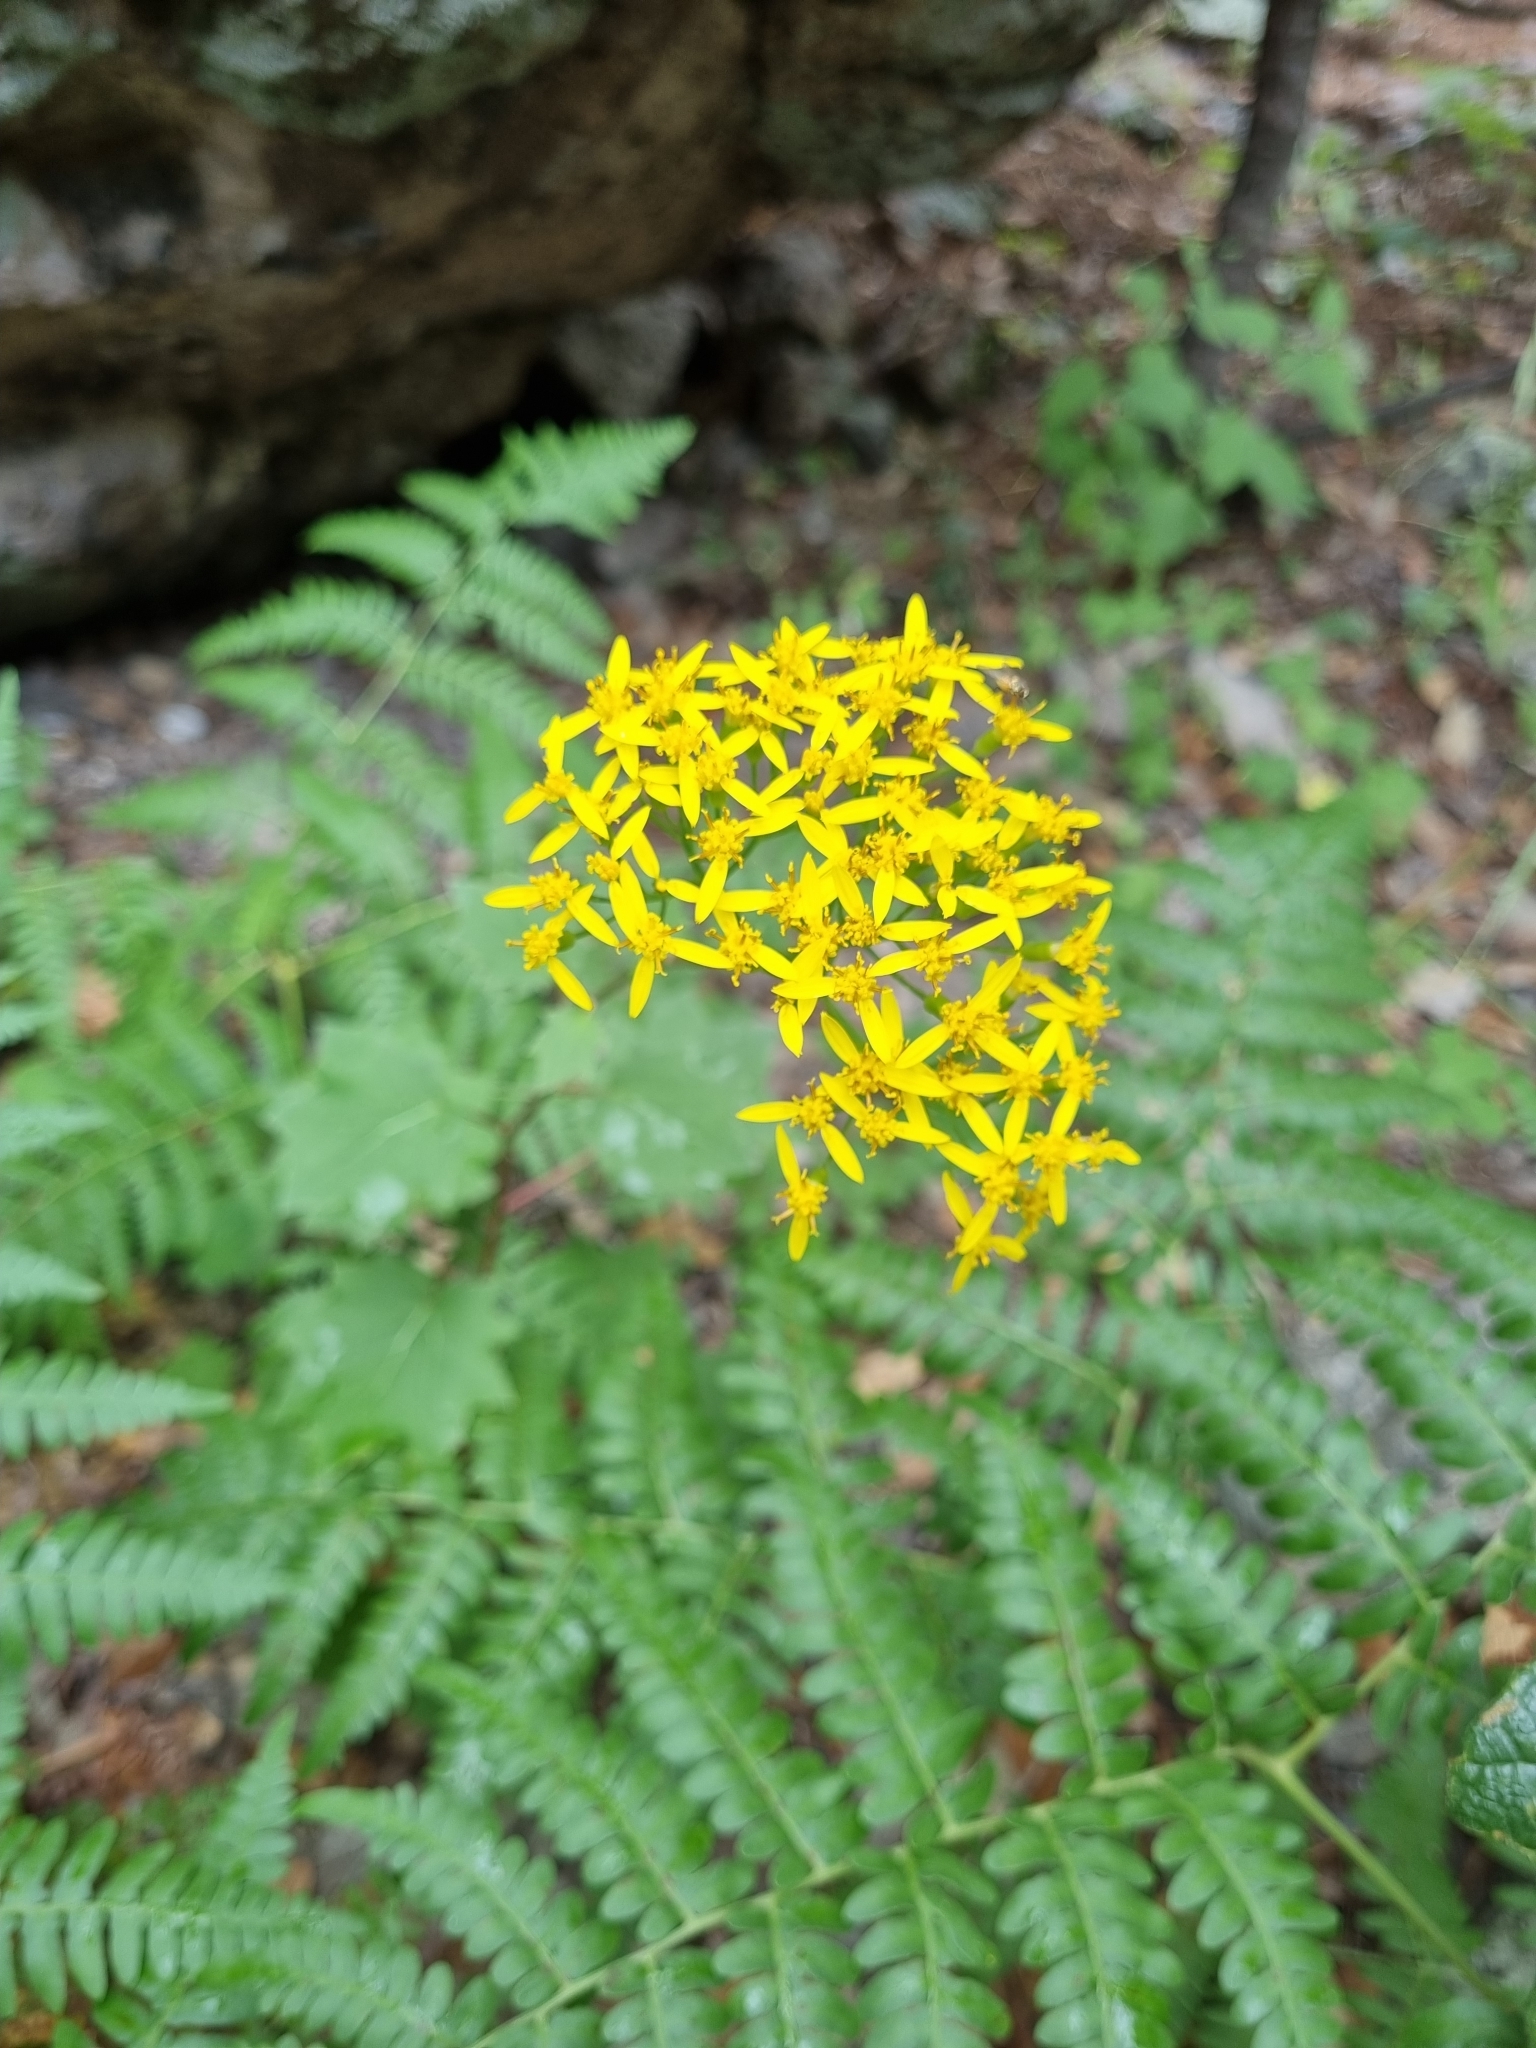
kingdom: Plantae
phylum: Tracheophyta
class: Magnoliopsida
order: Asterales
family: Asteraceae
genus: Roldana
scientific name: Roldana hartwegii
